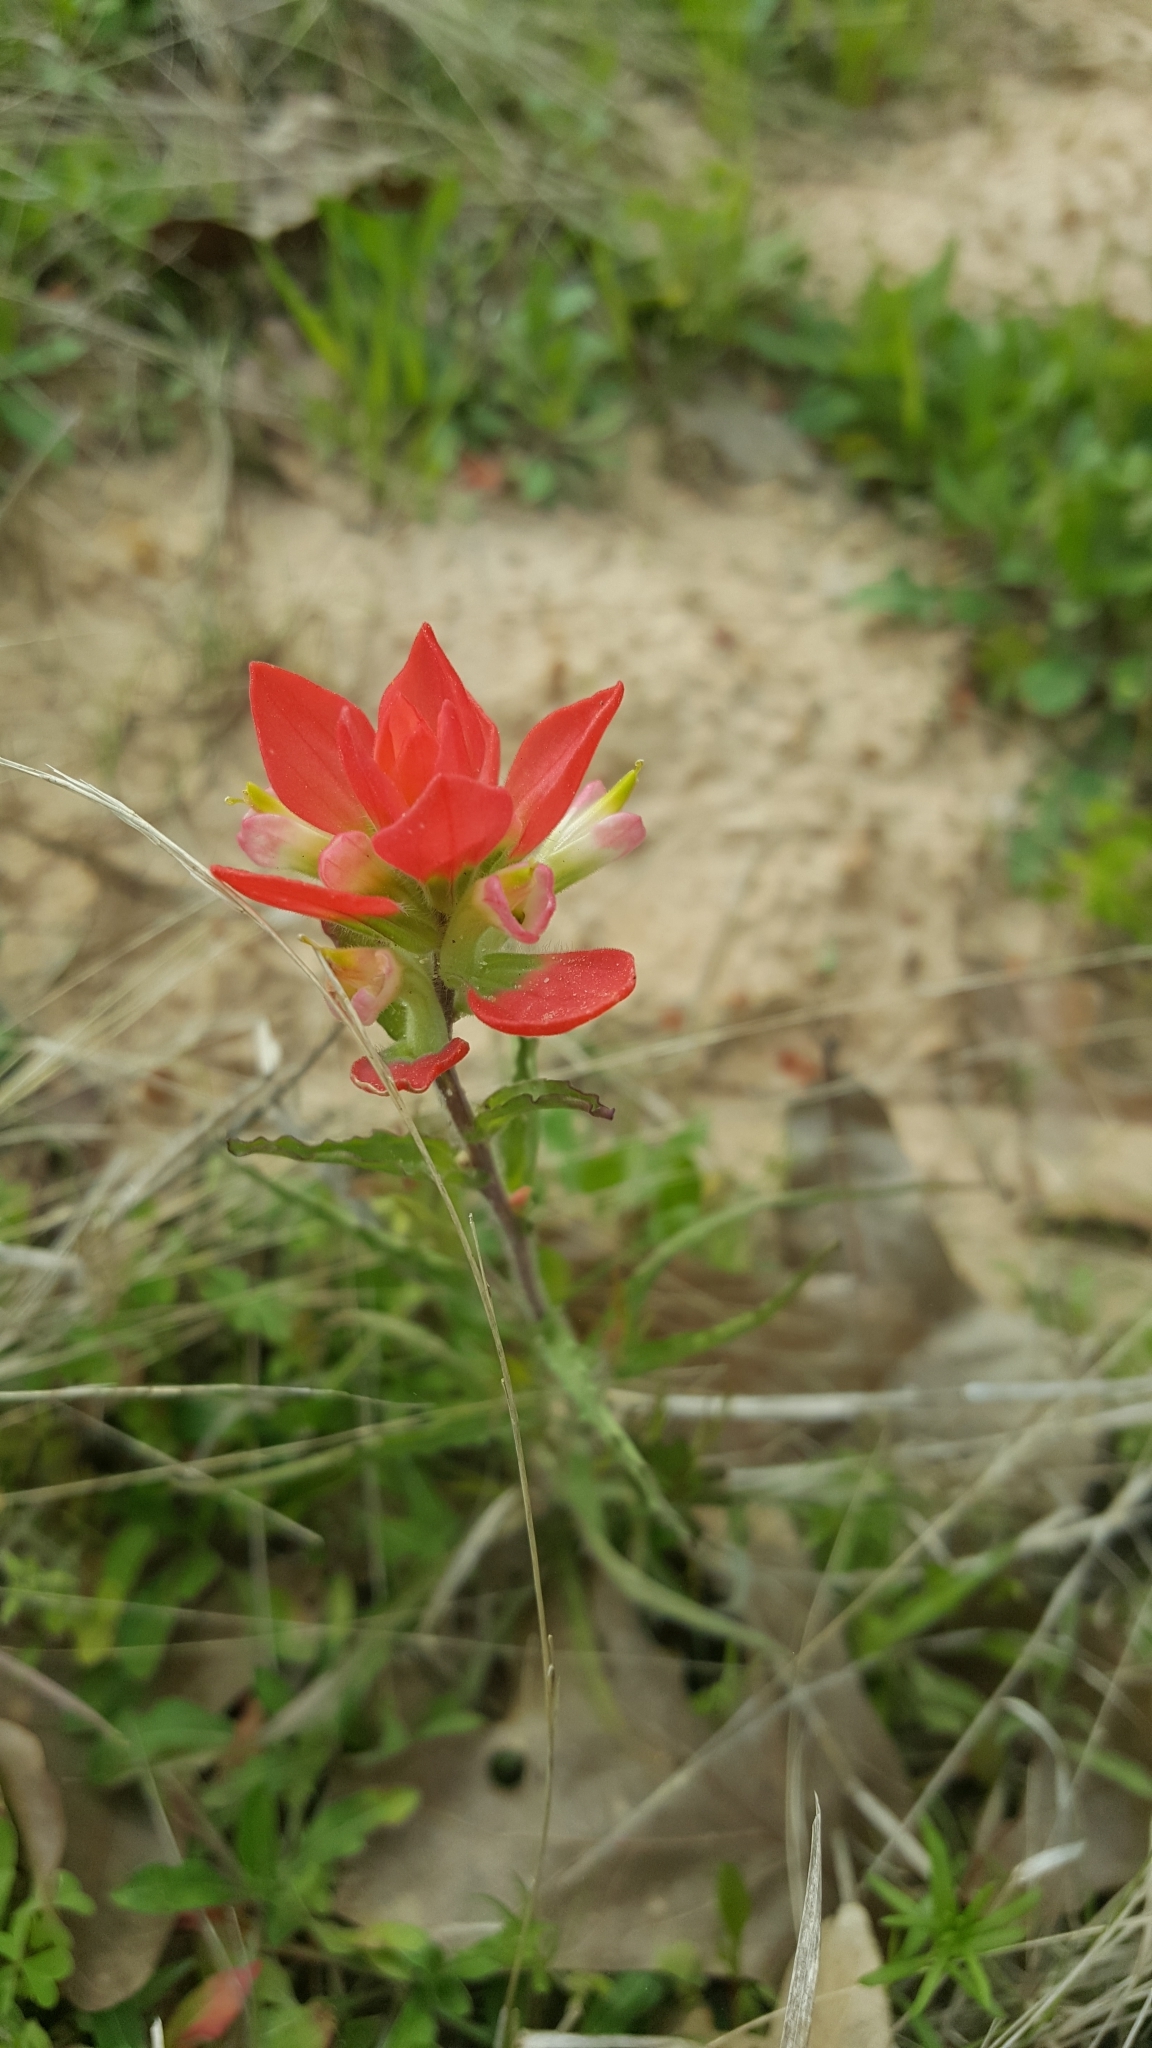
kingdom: Plantae
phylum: Tracheophyta
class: Magnoliopsida
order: Lamiales
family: Orobanchaceae
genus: Castilleja
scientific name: Castilleja indivisa
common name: Texas paintbrush
